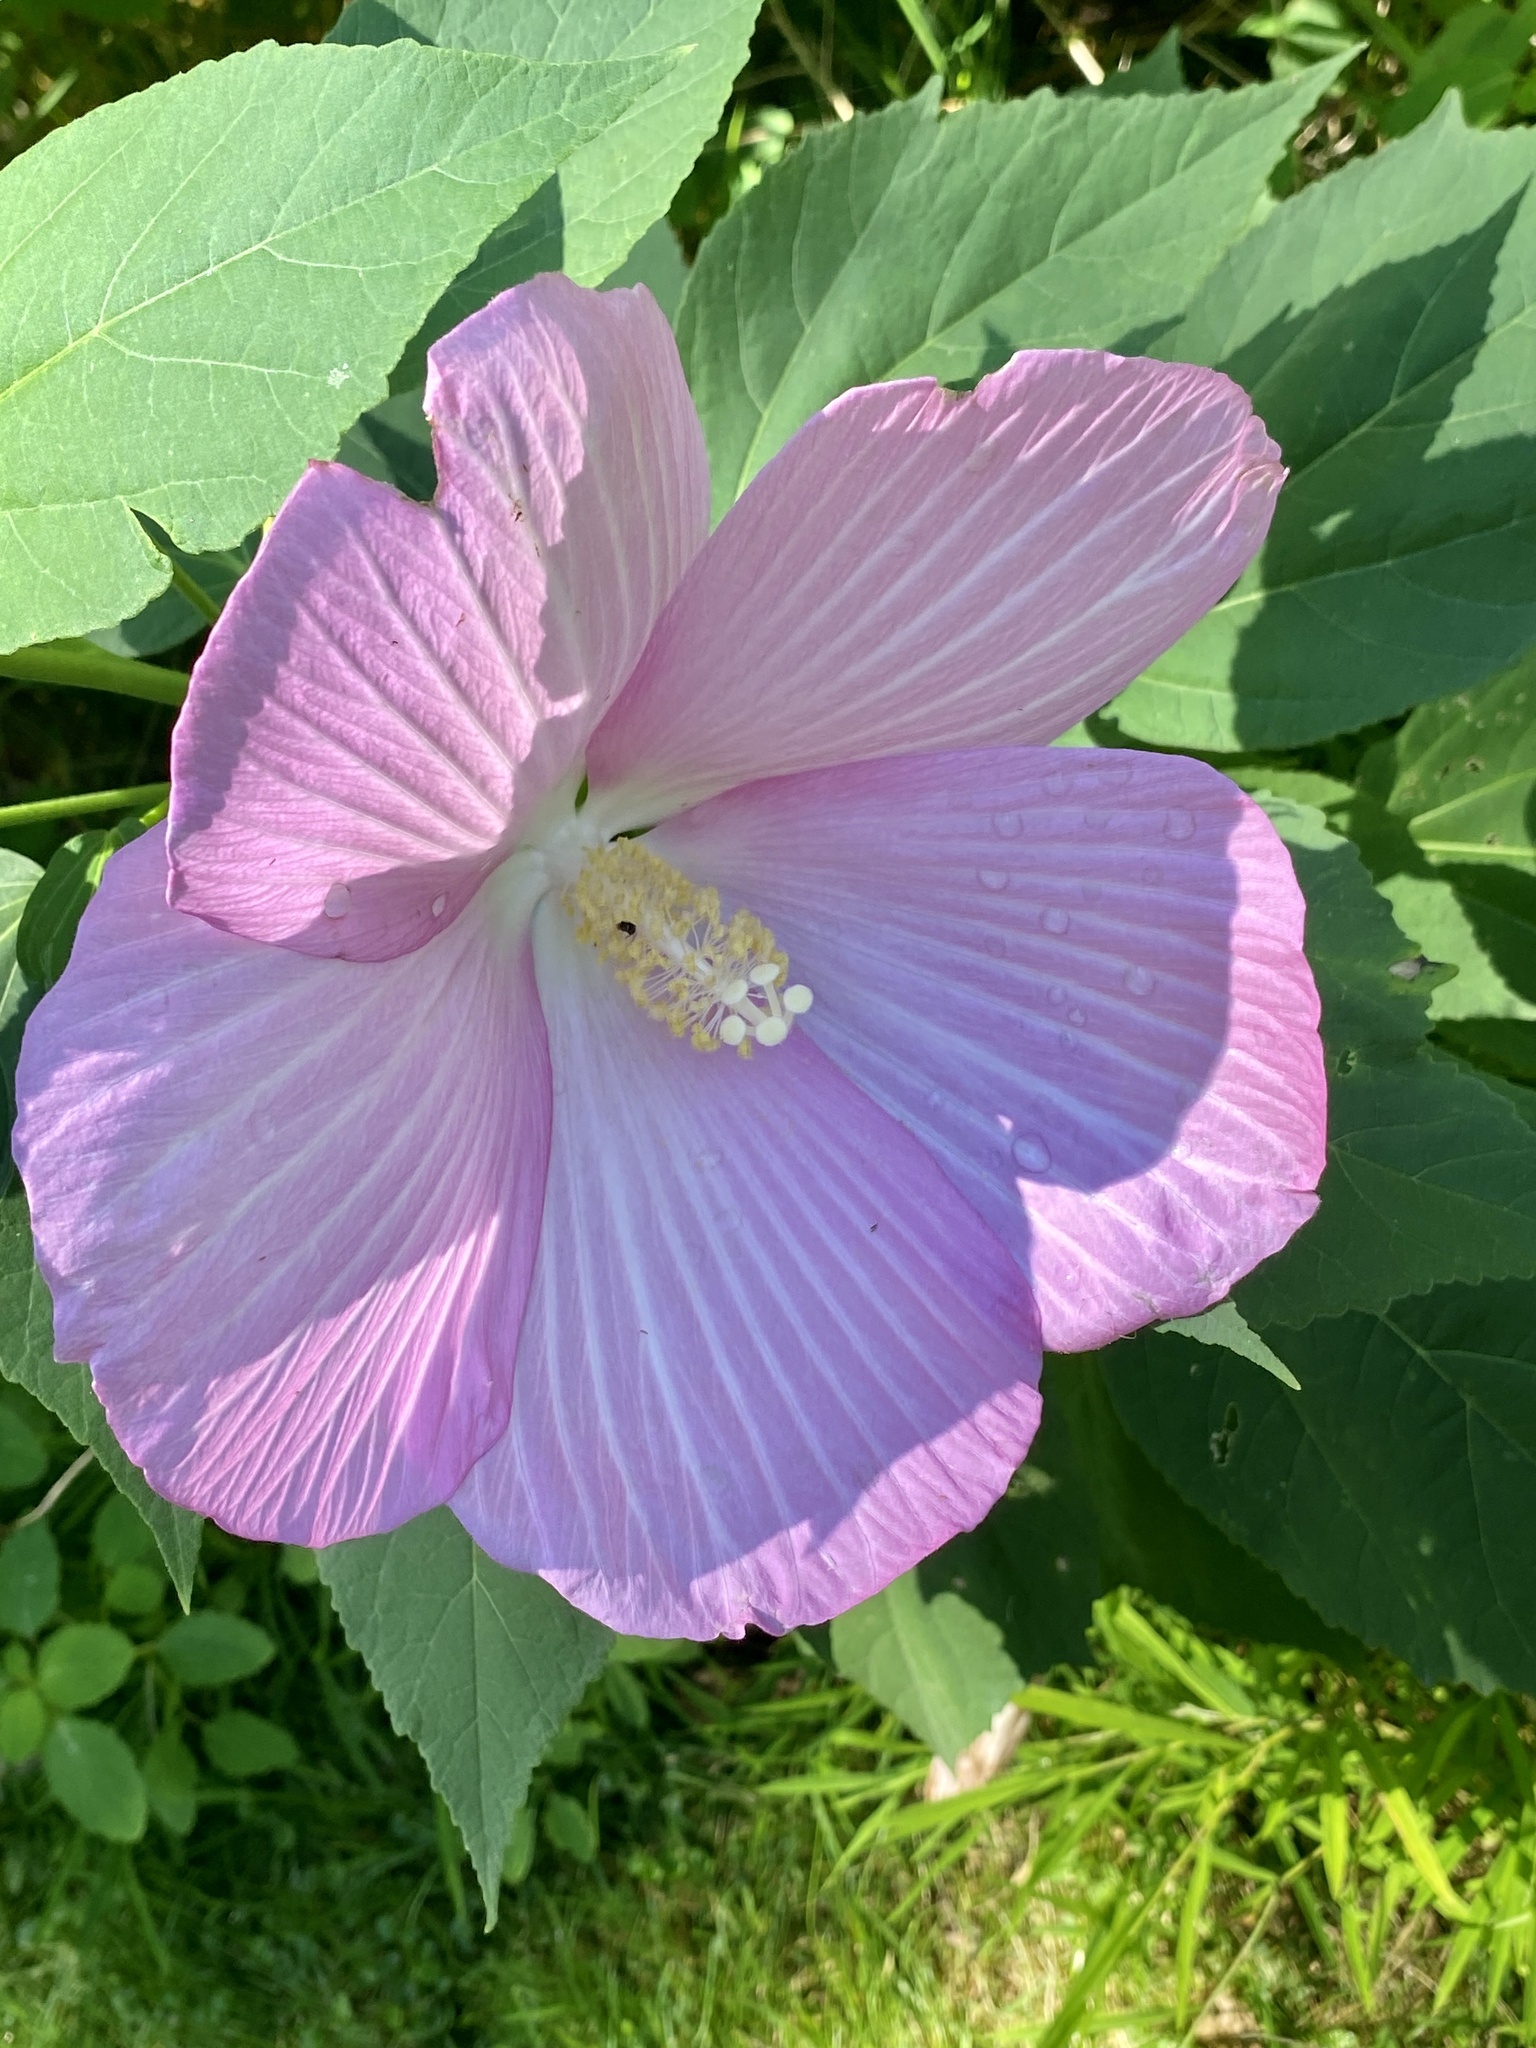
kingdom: Plantae
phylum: Tracheophyta
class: Magnoliopsida
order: Malvales
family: Malvaceae
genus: Hibiscus
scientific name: Hibiscus moscheutos
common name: Common rose-mallow
